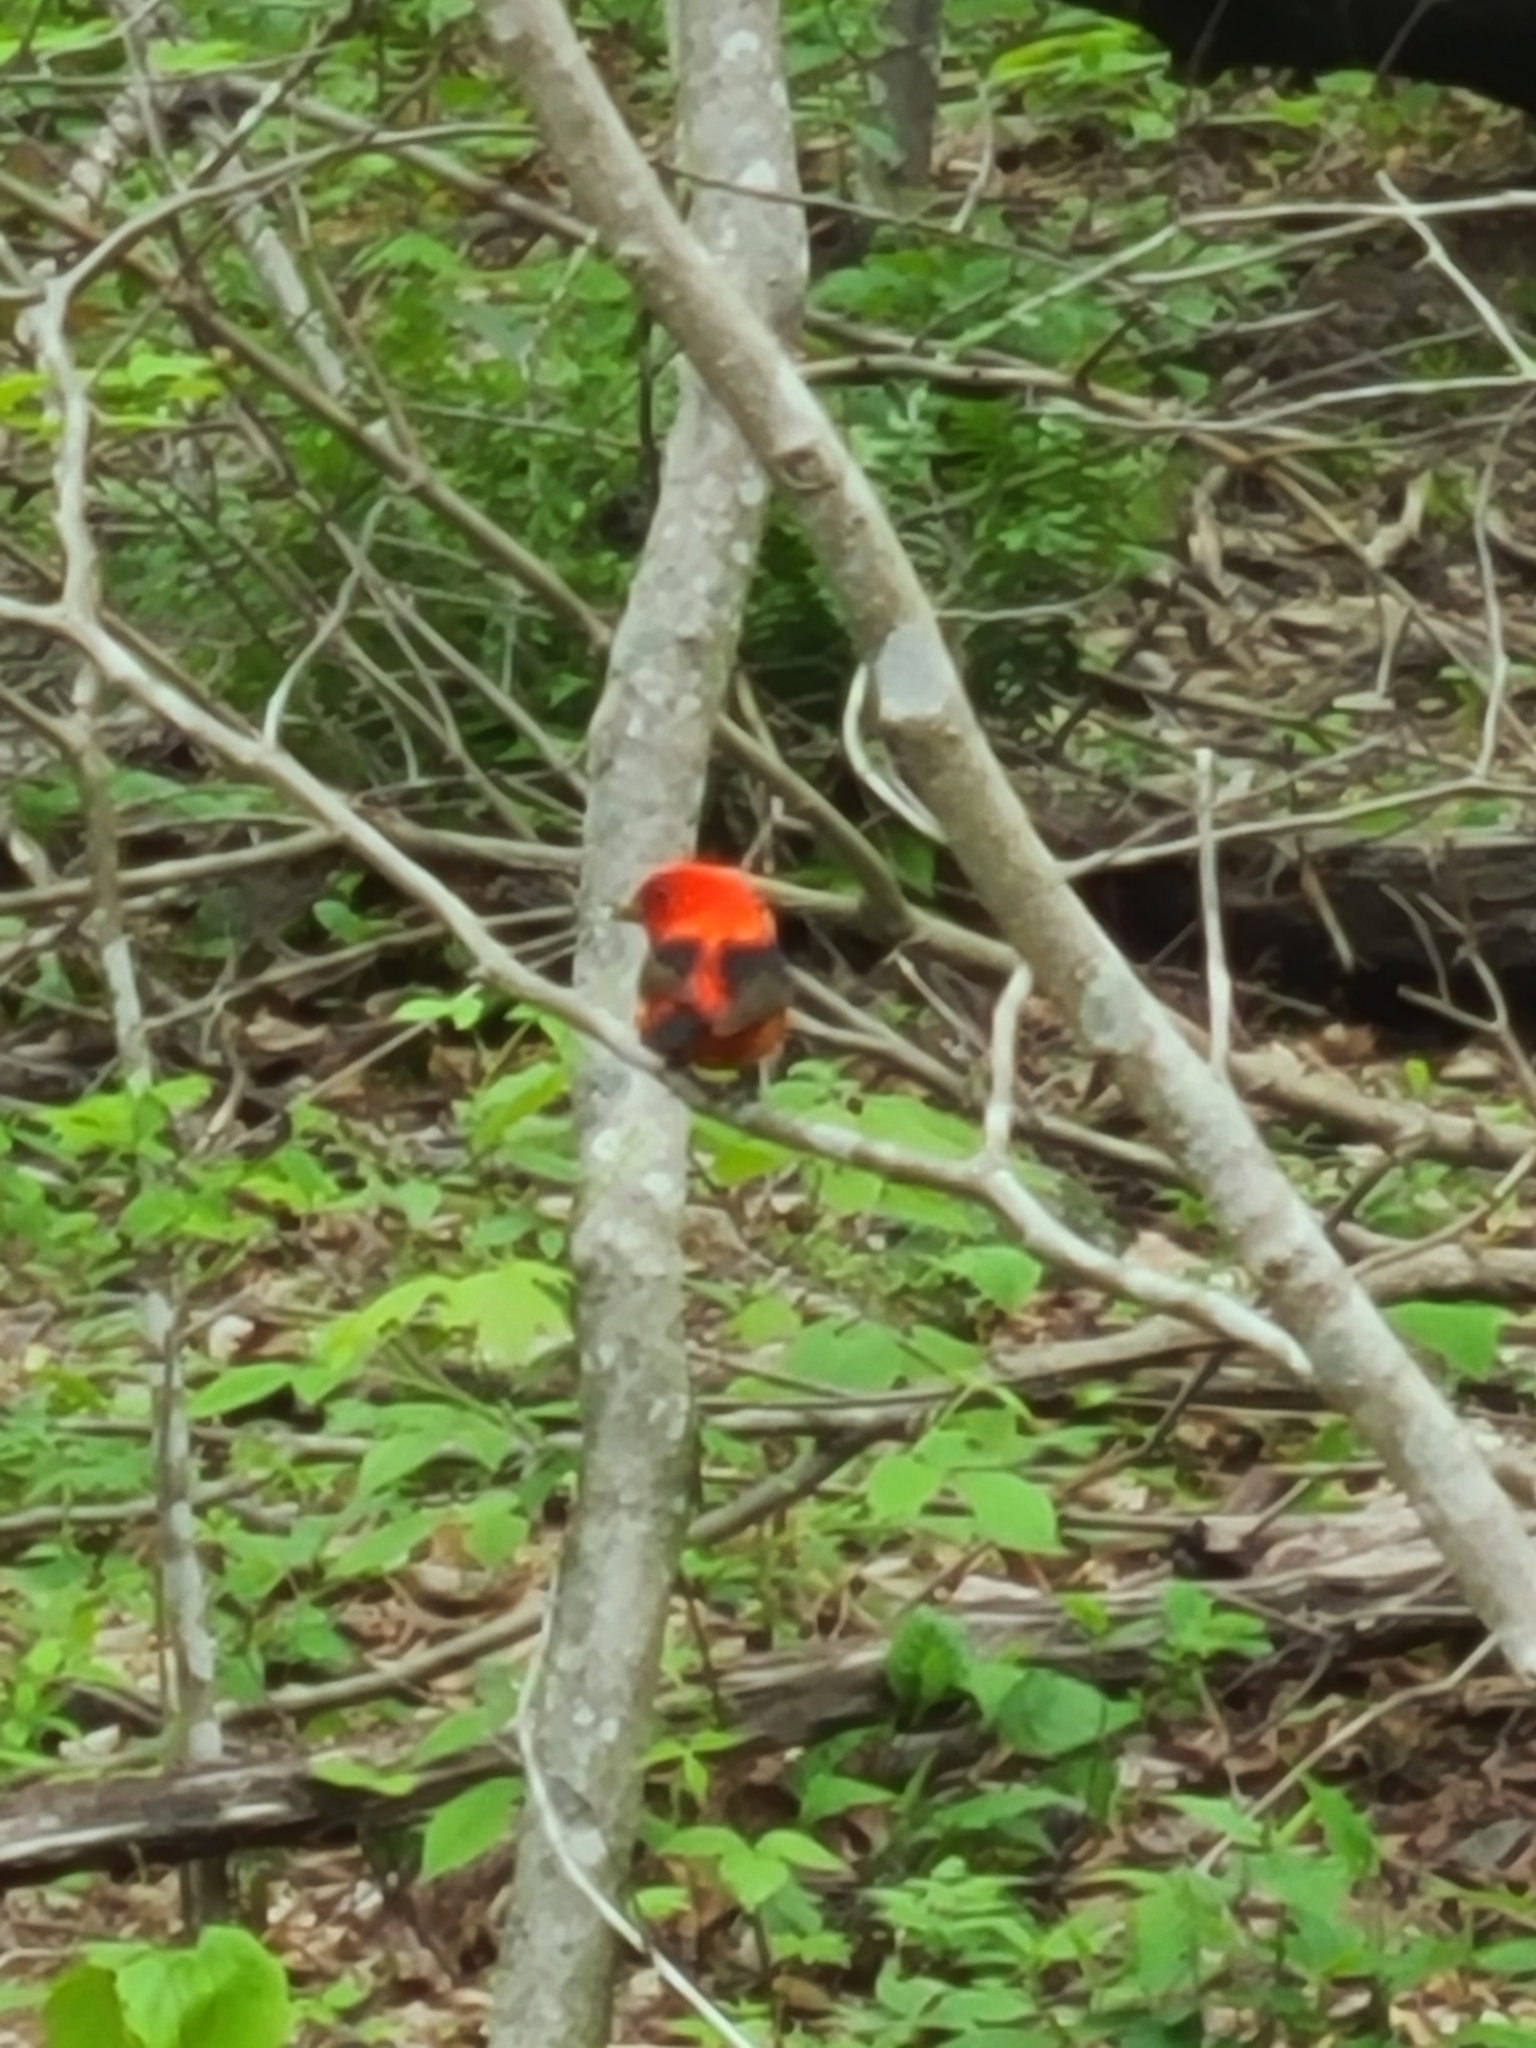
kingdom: Animalia
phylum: Chordata
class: Aves
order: Passeriformes
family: Cardinalidae
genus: Piranga
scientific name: Piranga olivacea
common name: Scarlet tanager
